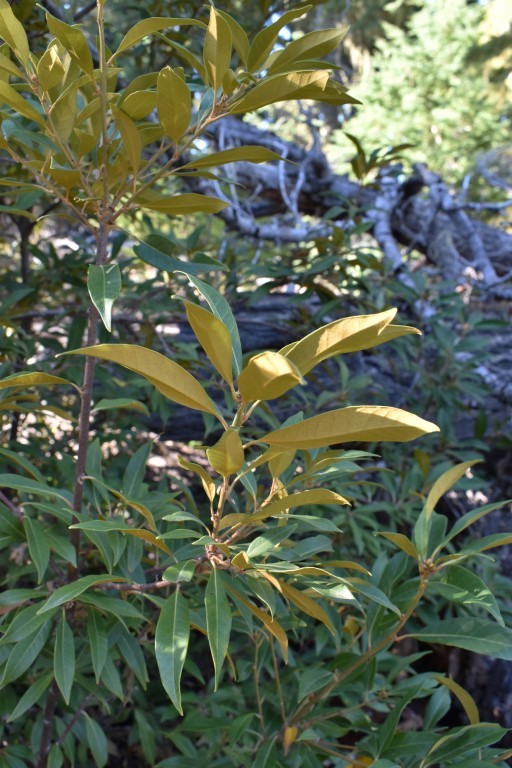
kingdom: Plantae
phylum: Tracheophyta
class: Magnoliopsida
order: Fagales
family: Fagaceae
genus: Chrysolepis
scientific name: Chrysolepis chrysophylla
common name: Giant chinquapin
